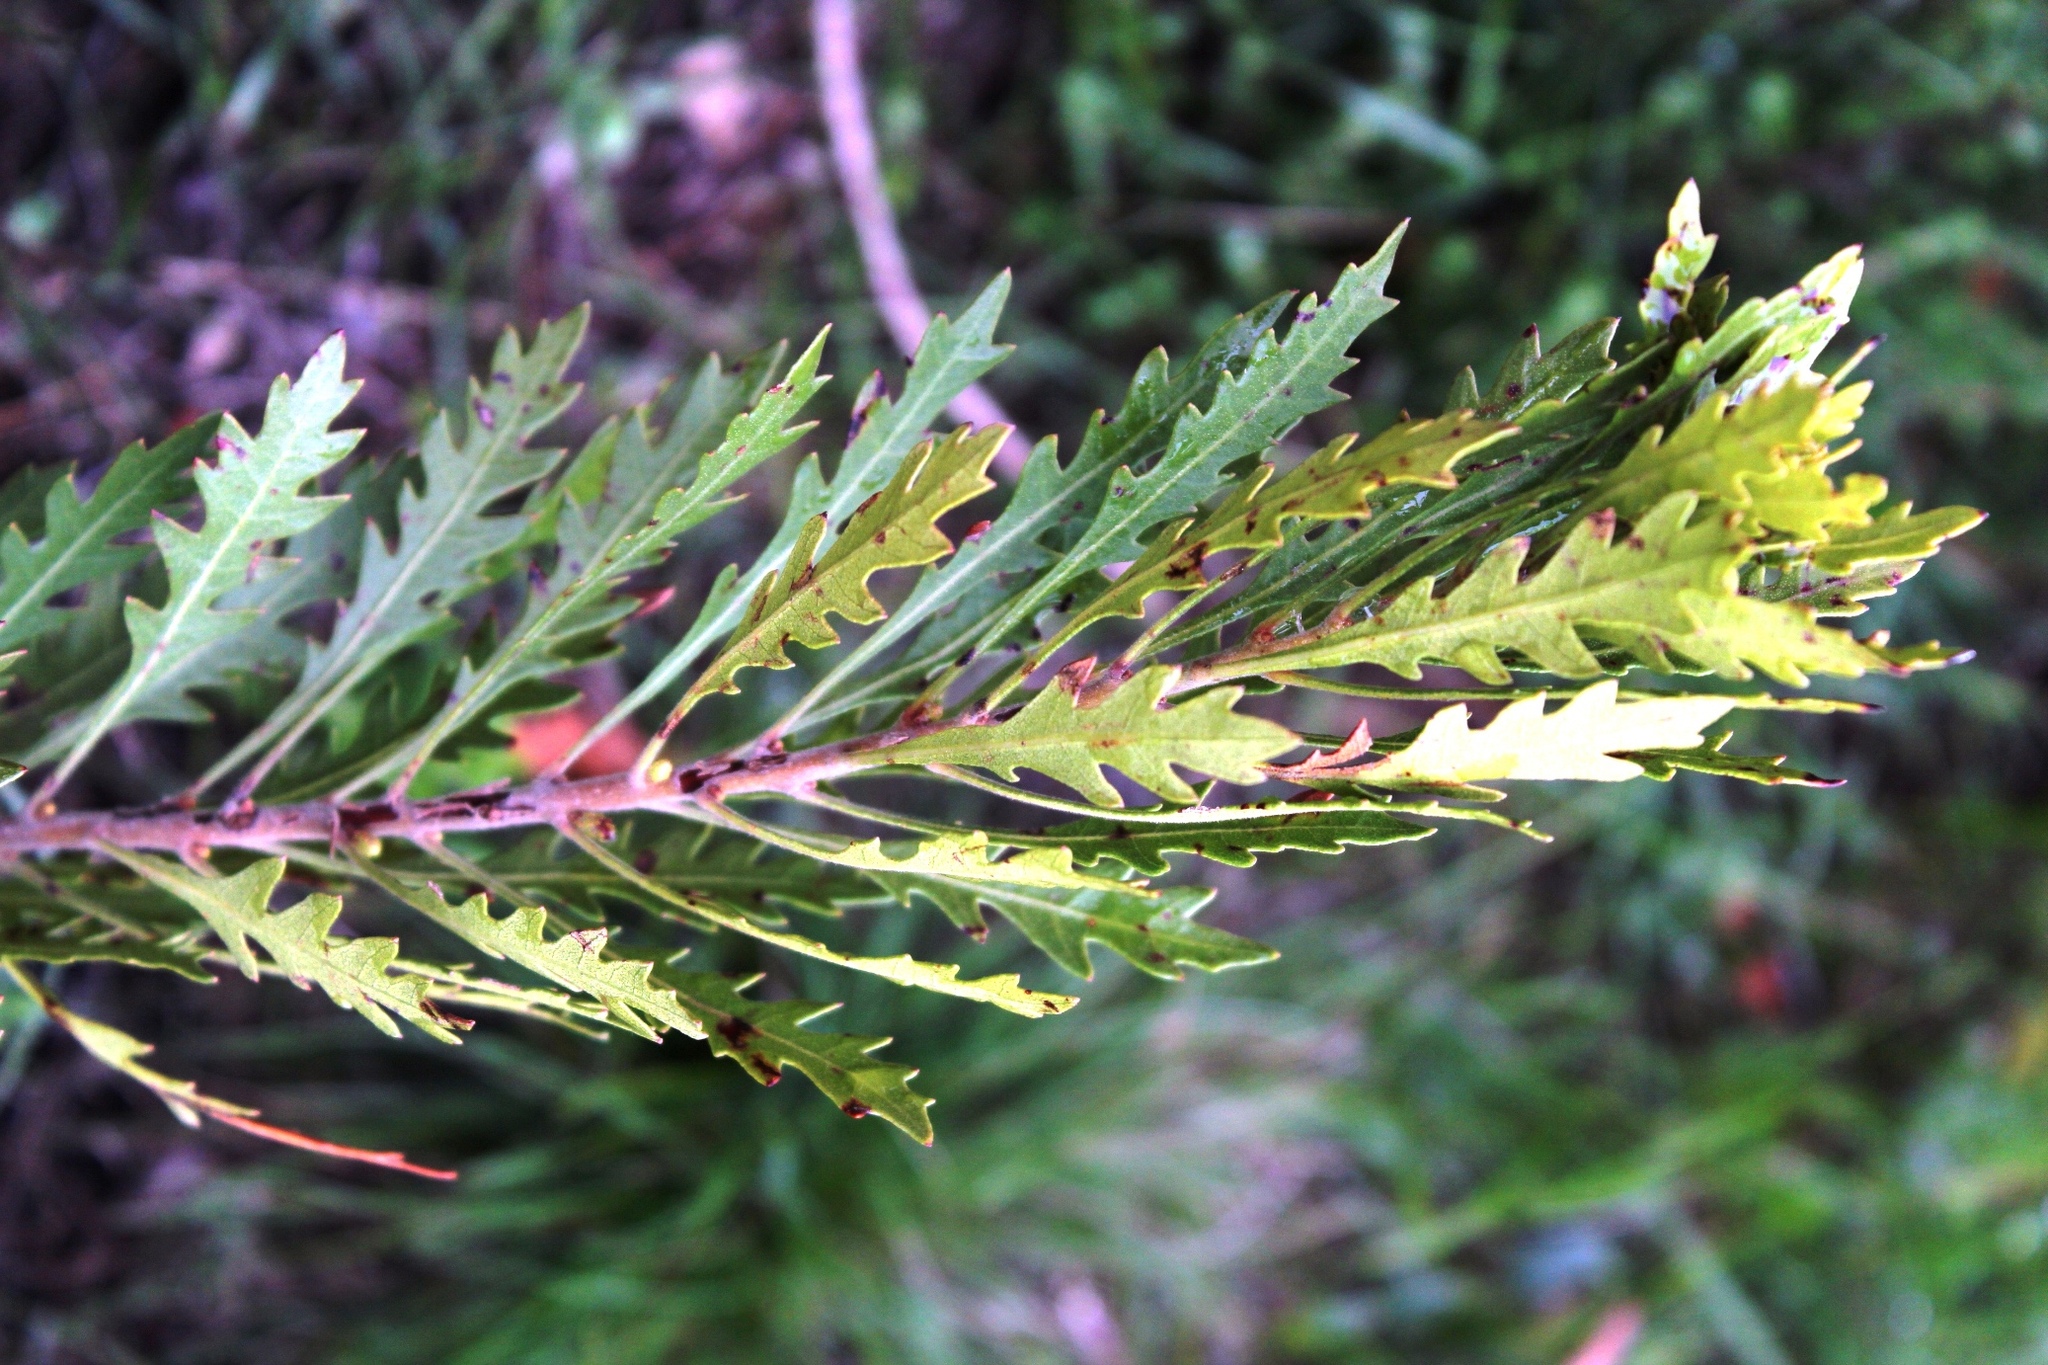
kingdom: Plantae
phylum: Tracheophyta
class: Magnoliopsida
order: Fagales
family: Myricaceae
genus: Morella
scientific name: Morella quercifolia
